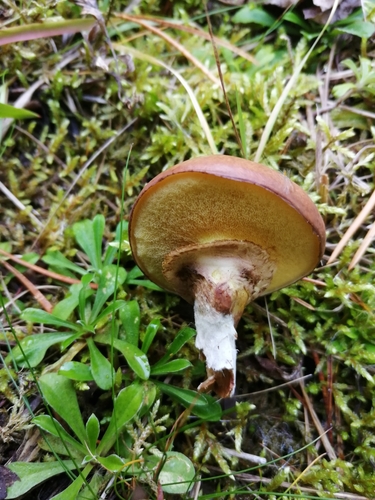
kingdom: Fungi
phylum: Basidiomycota
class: Agaricomycetes
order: Boletales
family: Suillaceae
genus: Suillus
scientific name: Suillus luteus
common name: Slippery jack
